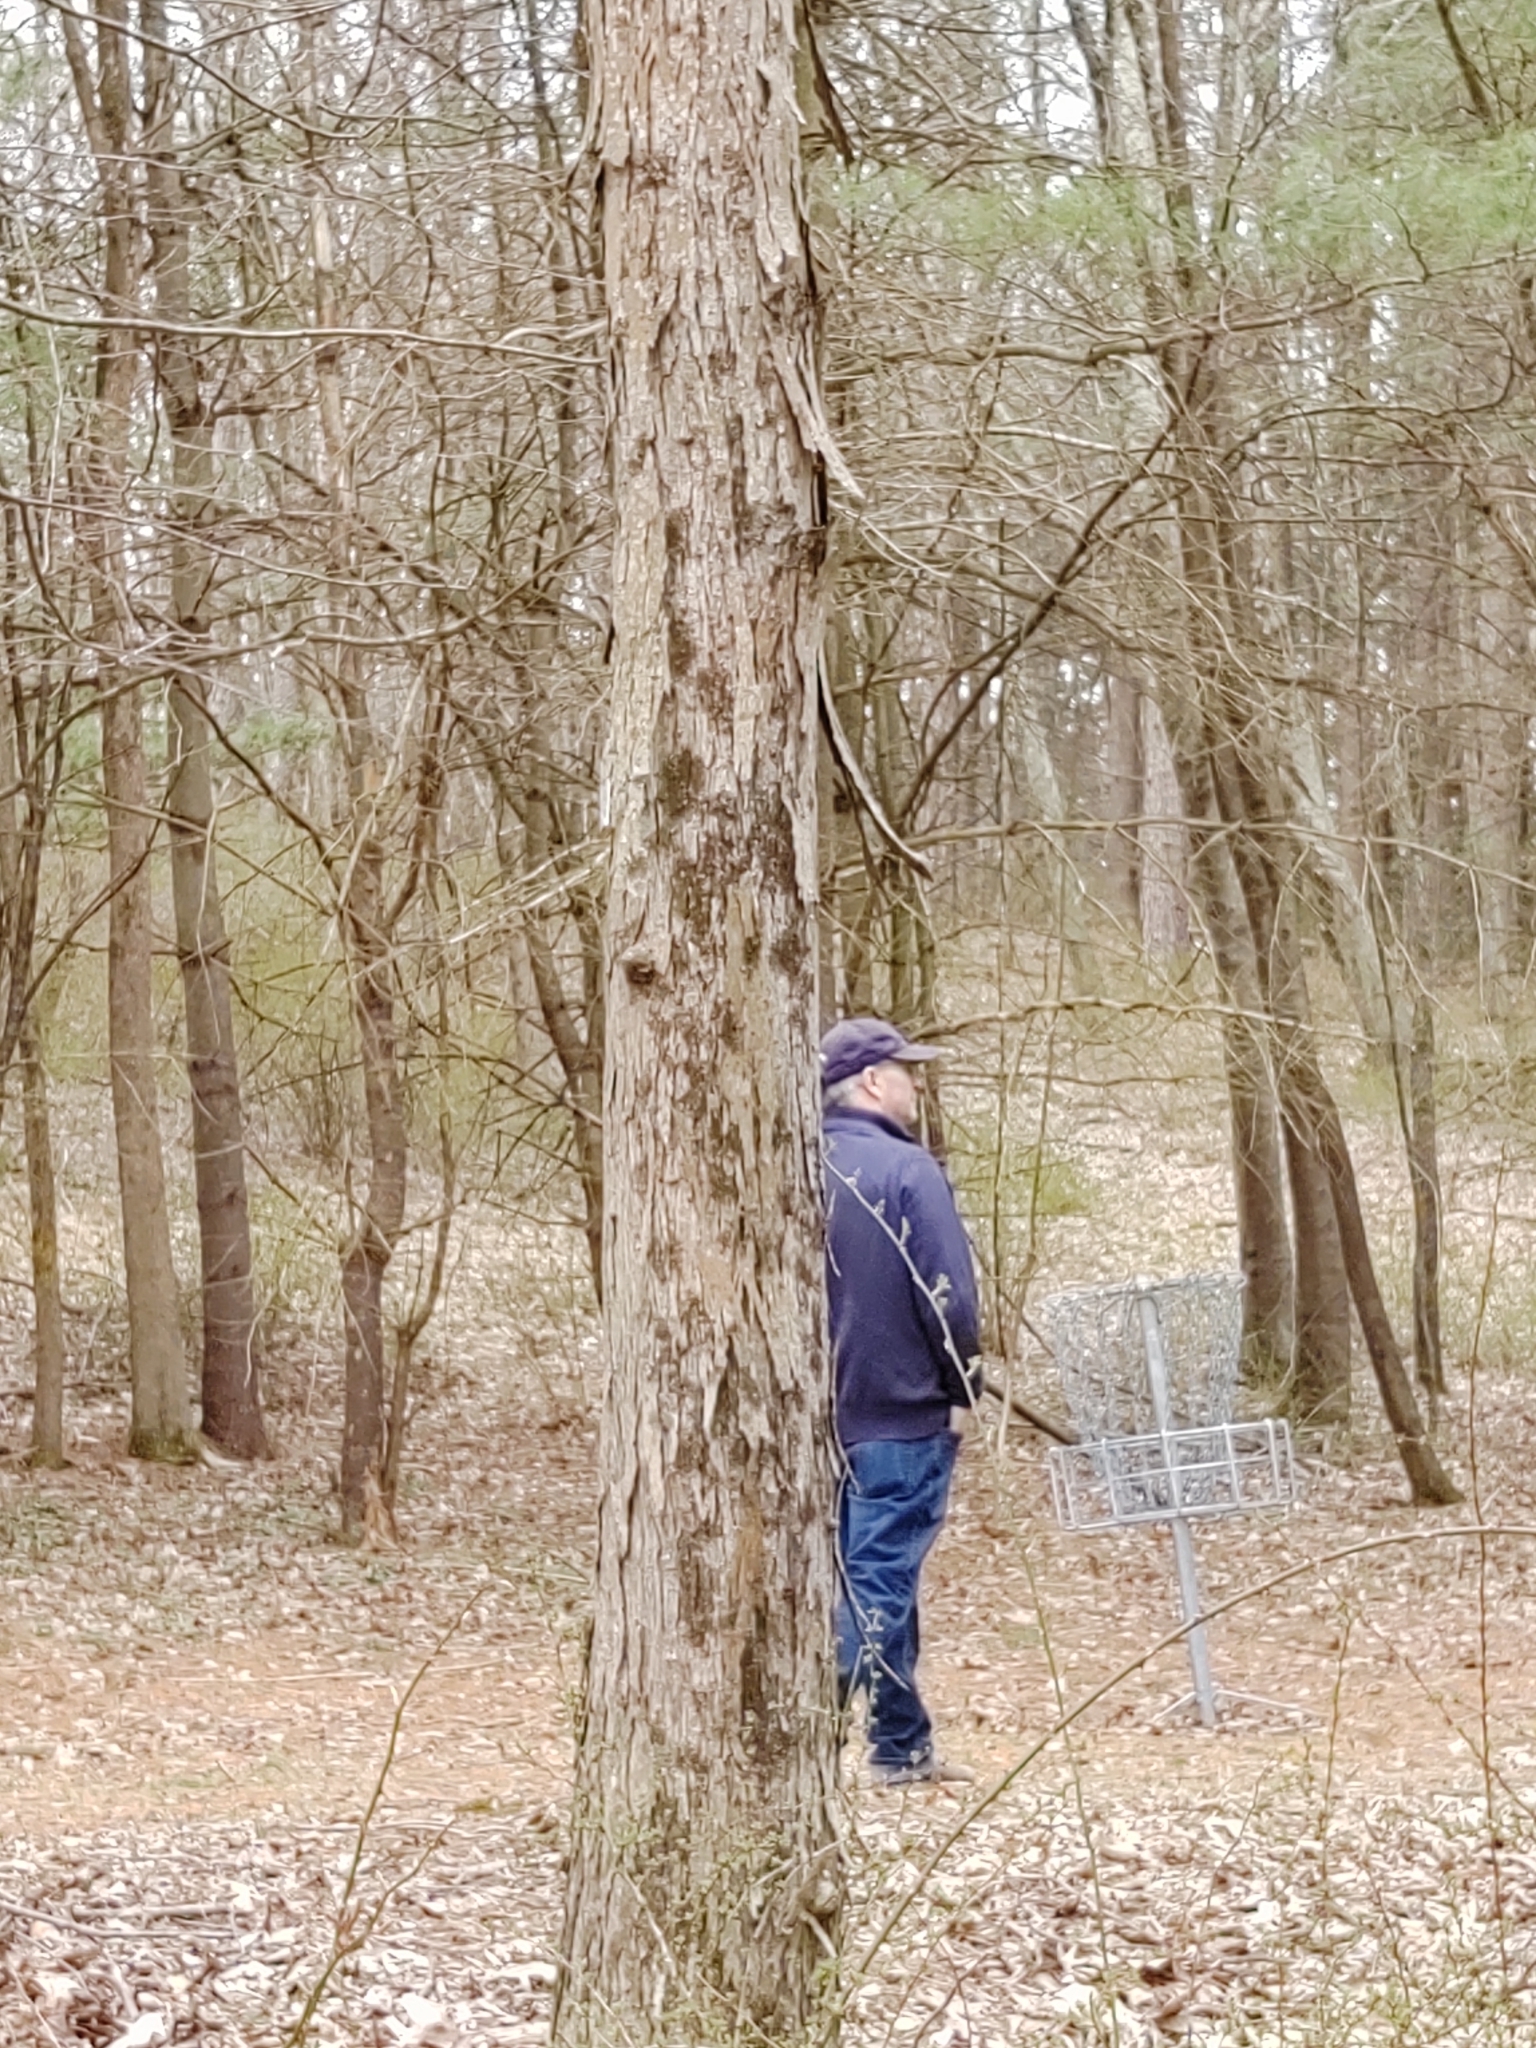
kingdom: Plantae
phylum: Tracheophyta
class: Magnoliopsida
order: Fagales
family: Juglandaceae
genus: Carya
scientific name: Carya ovata
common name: Shagbark hickory
